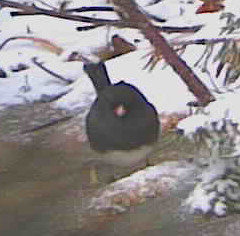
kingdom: Animalia
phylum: Chordata
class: Aves
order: Passeriformes
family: Passerellidae
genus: Junco
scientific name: Junco hyemalis
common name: Dark-eyed junco
